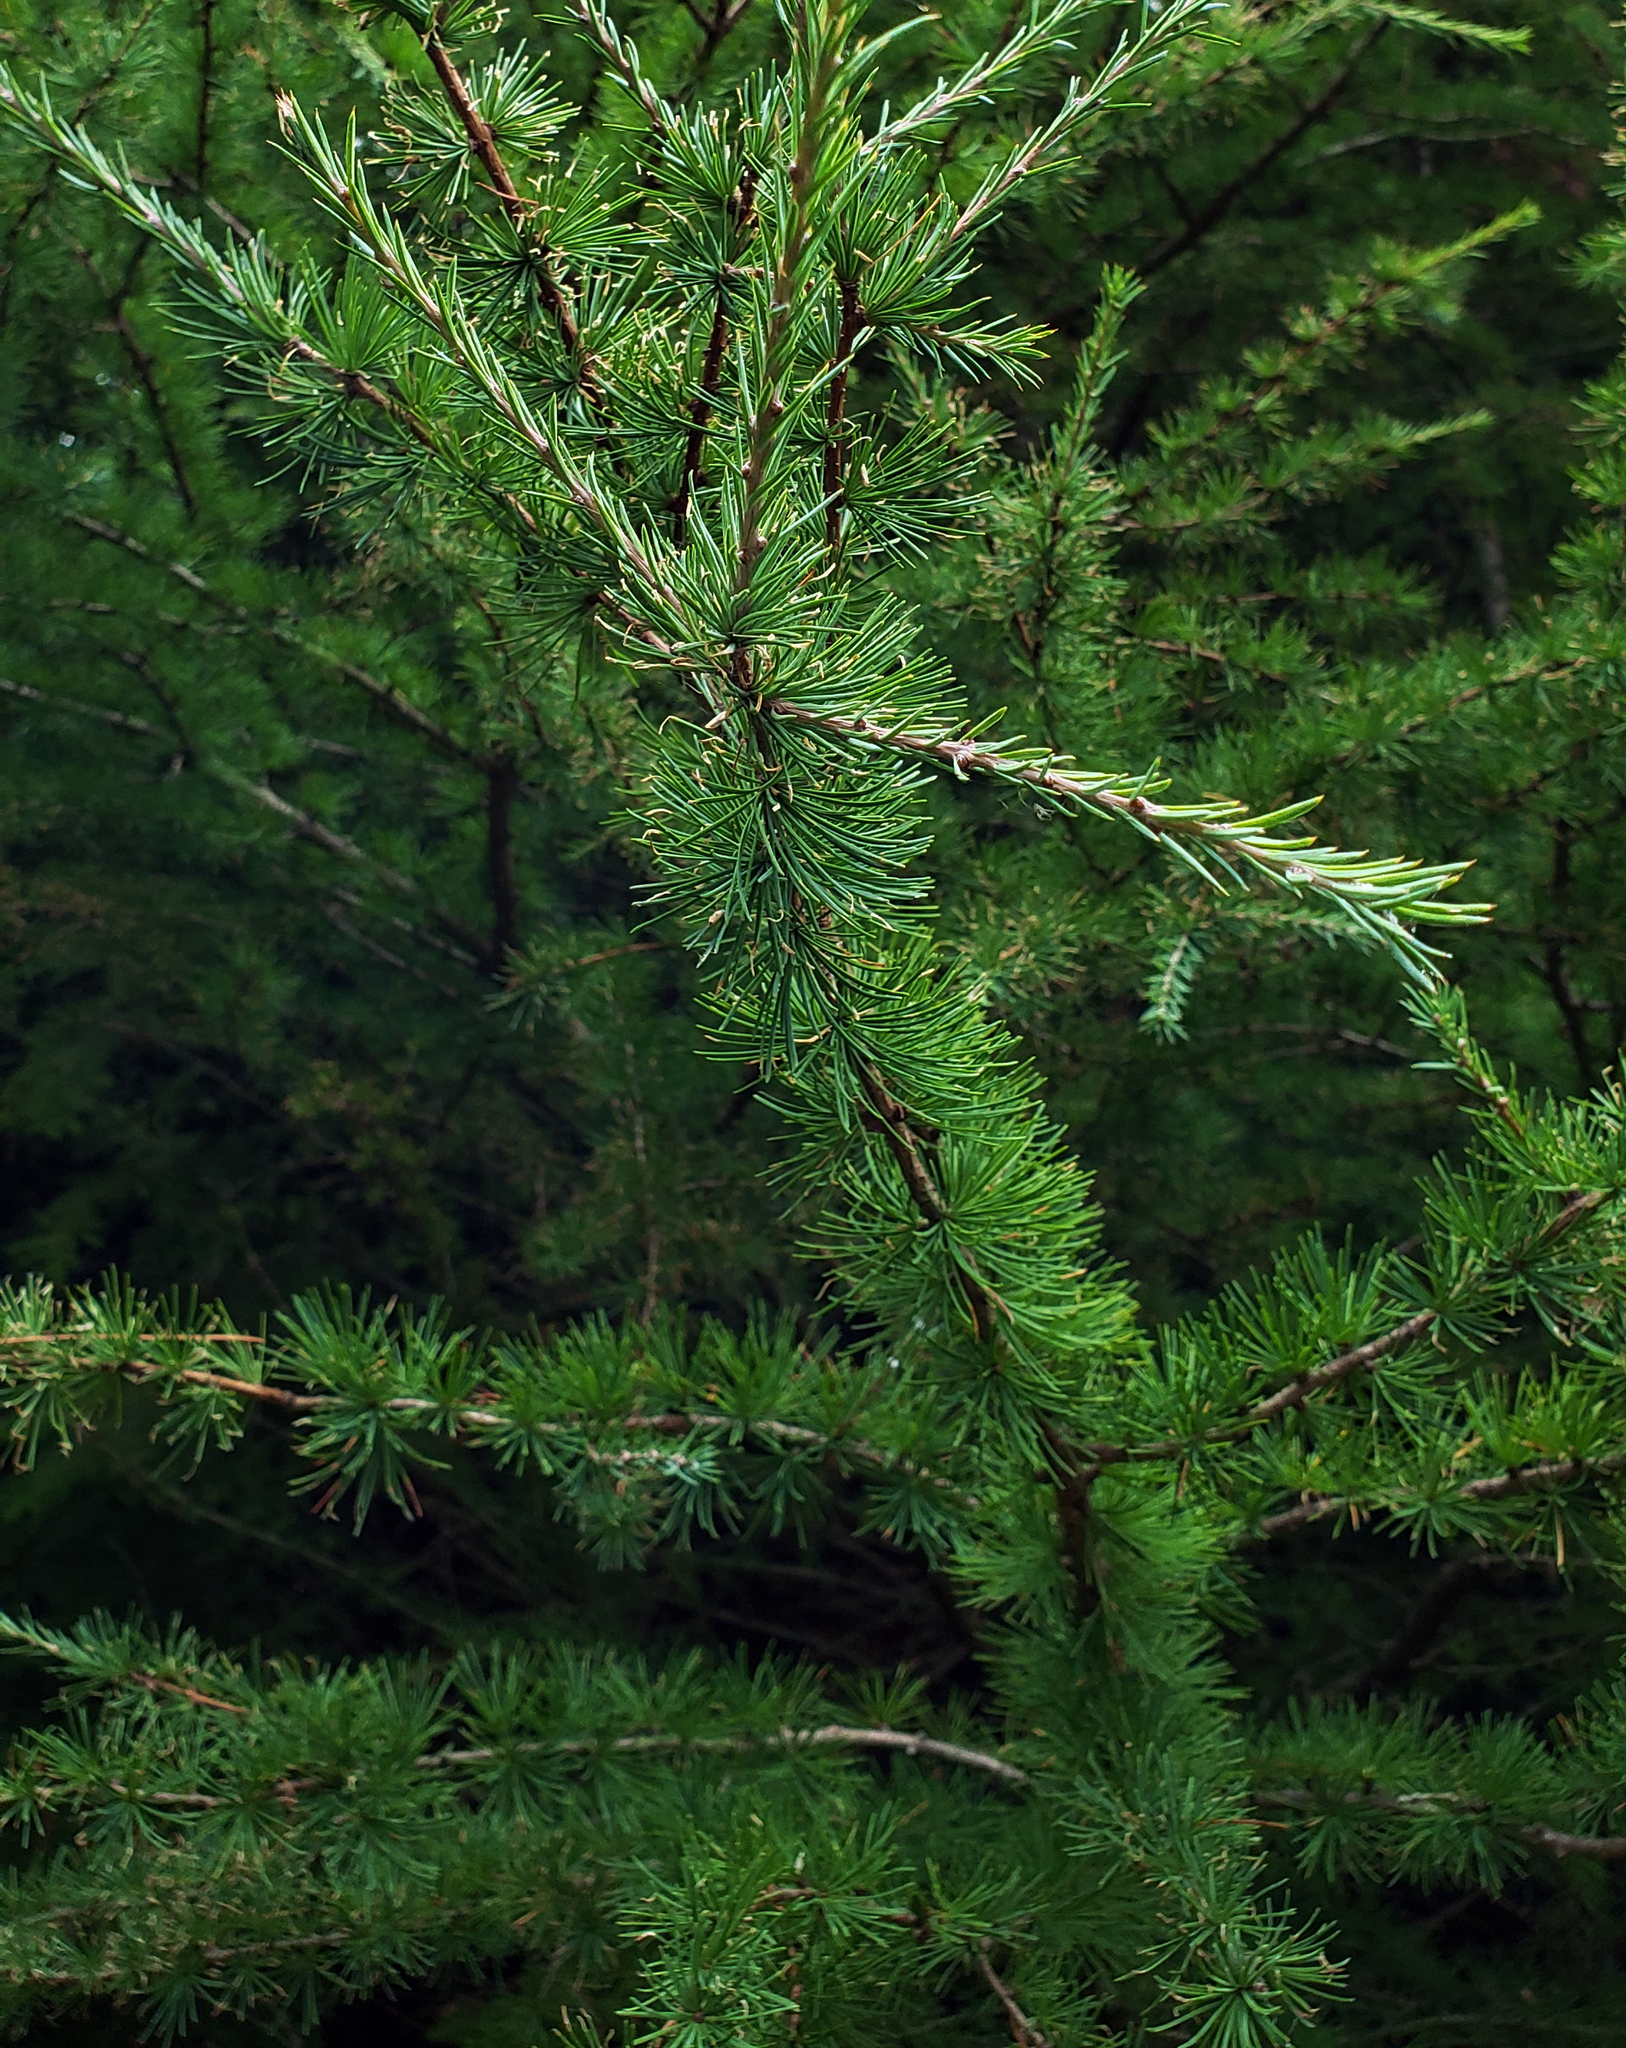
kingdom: Plantae
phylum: Tracheophyta
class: Pinopsida
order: Pinales
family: Pinaceae
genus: Larix
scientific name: Larix laricina
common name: American larch
